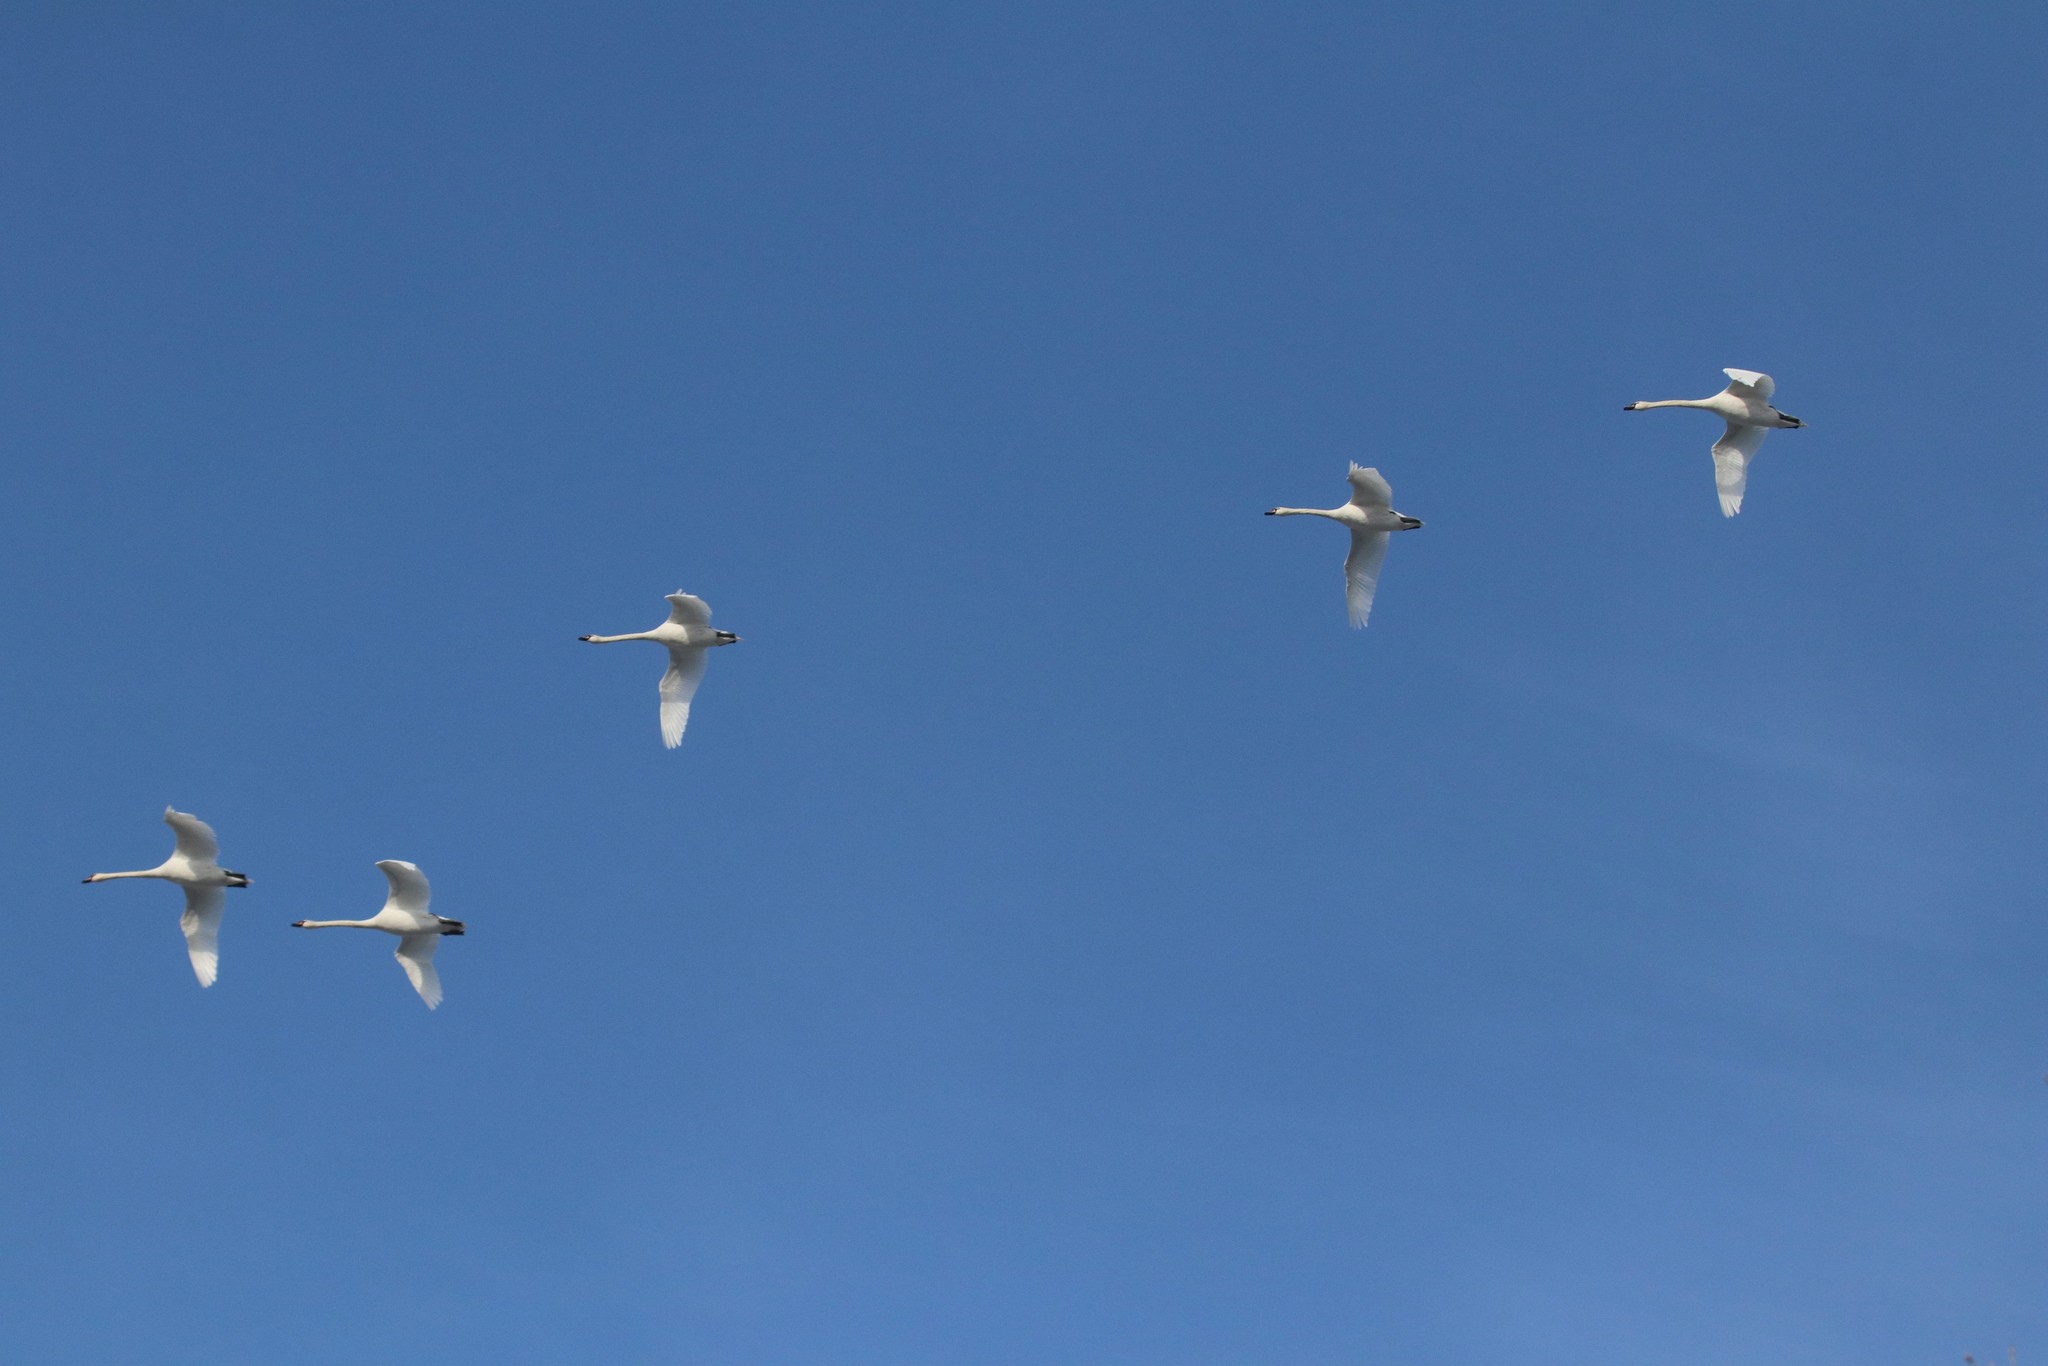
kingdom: Animalia
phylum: Chordata
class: Aves
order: Anseriformes
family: Anatidae
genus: Cygnus
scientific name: Cygnus olor
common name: Mute swan
